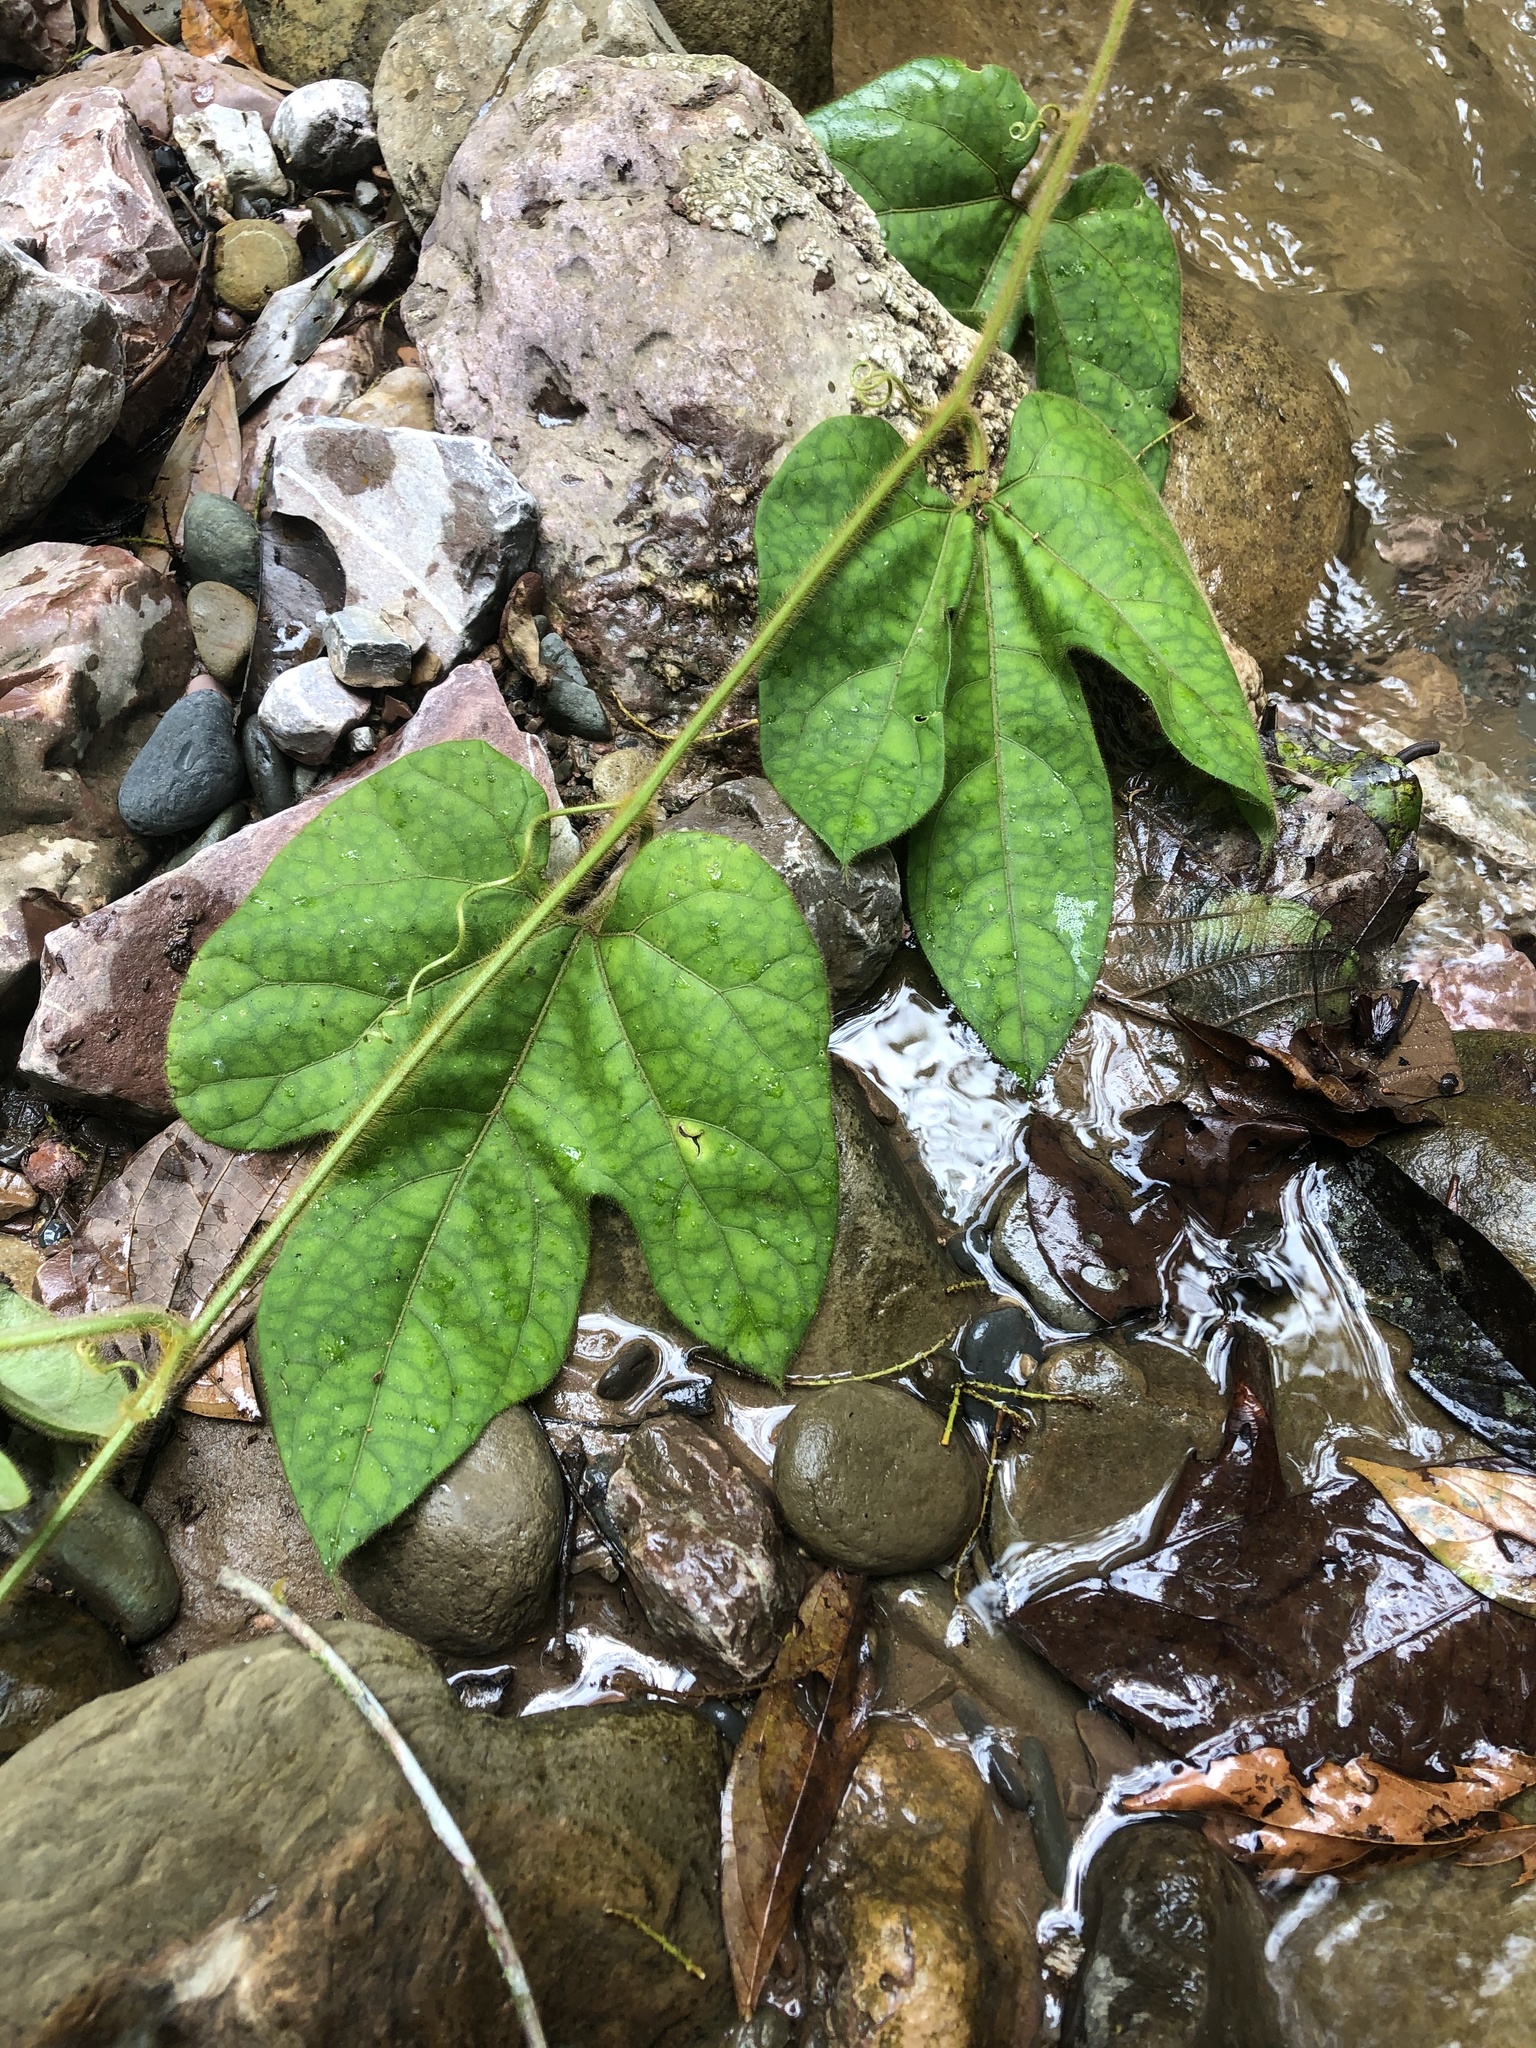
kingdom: Plantae
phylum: Tracheophyta
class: Magnoliopsida
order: Cucurbitales
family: Cucurbitaceae
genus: Gurania
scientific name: Gurania eriantha
